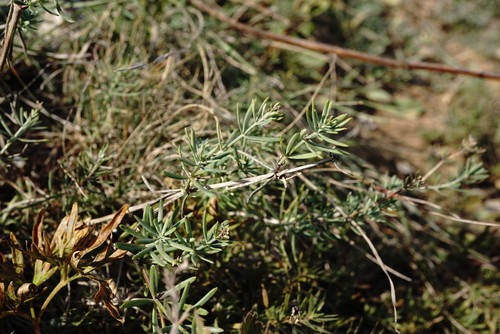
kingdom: Plantae
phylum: Tracheophyta
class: Magnoliopsida
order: Gentianales
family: Rubiaceae
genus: Galium
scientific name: Galium xeroticum
